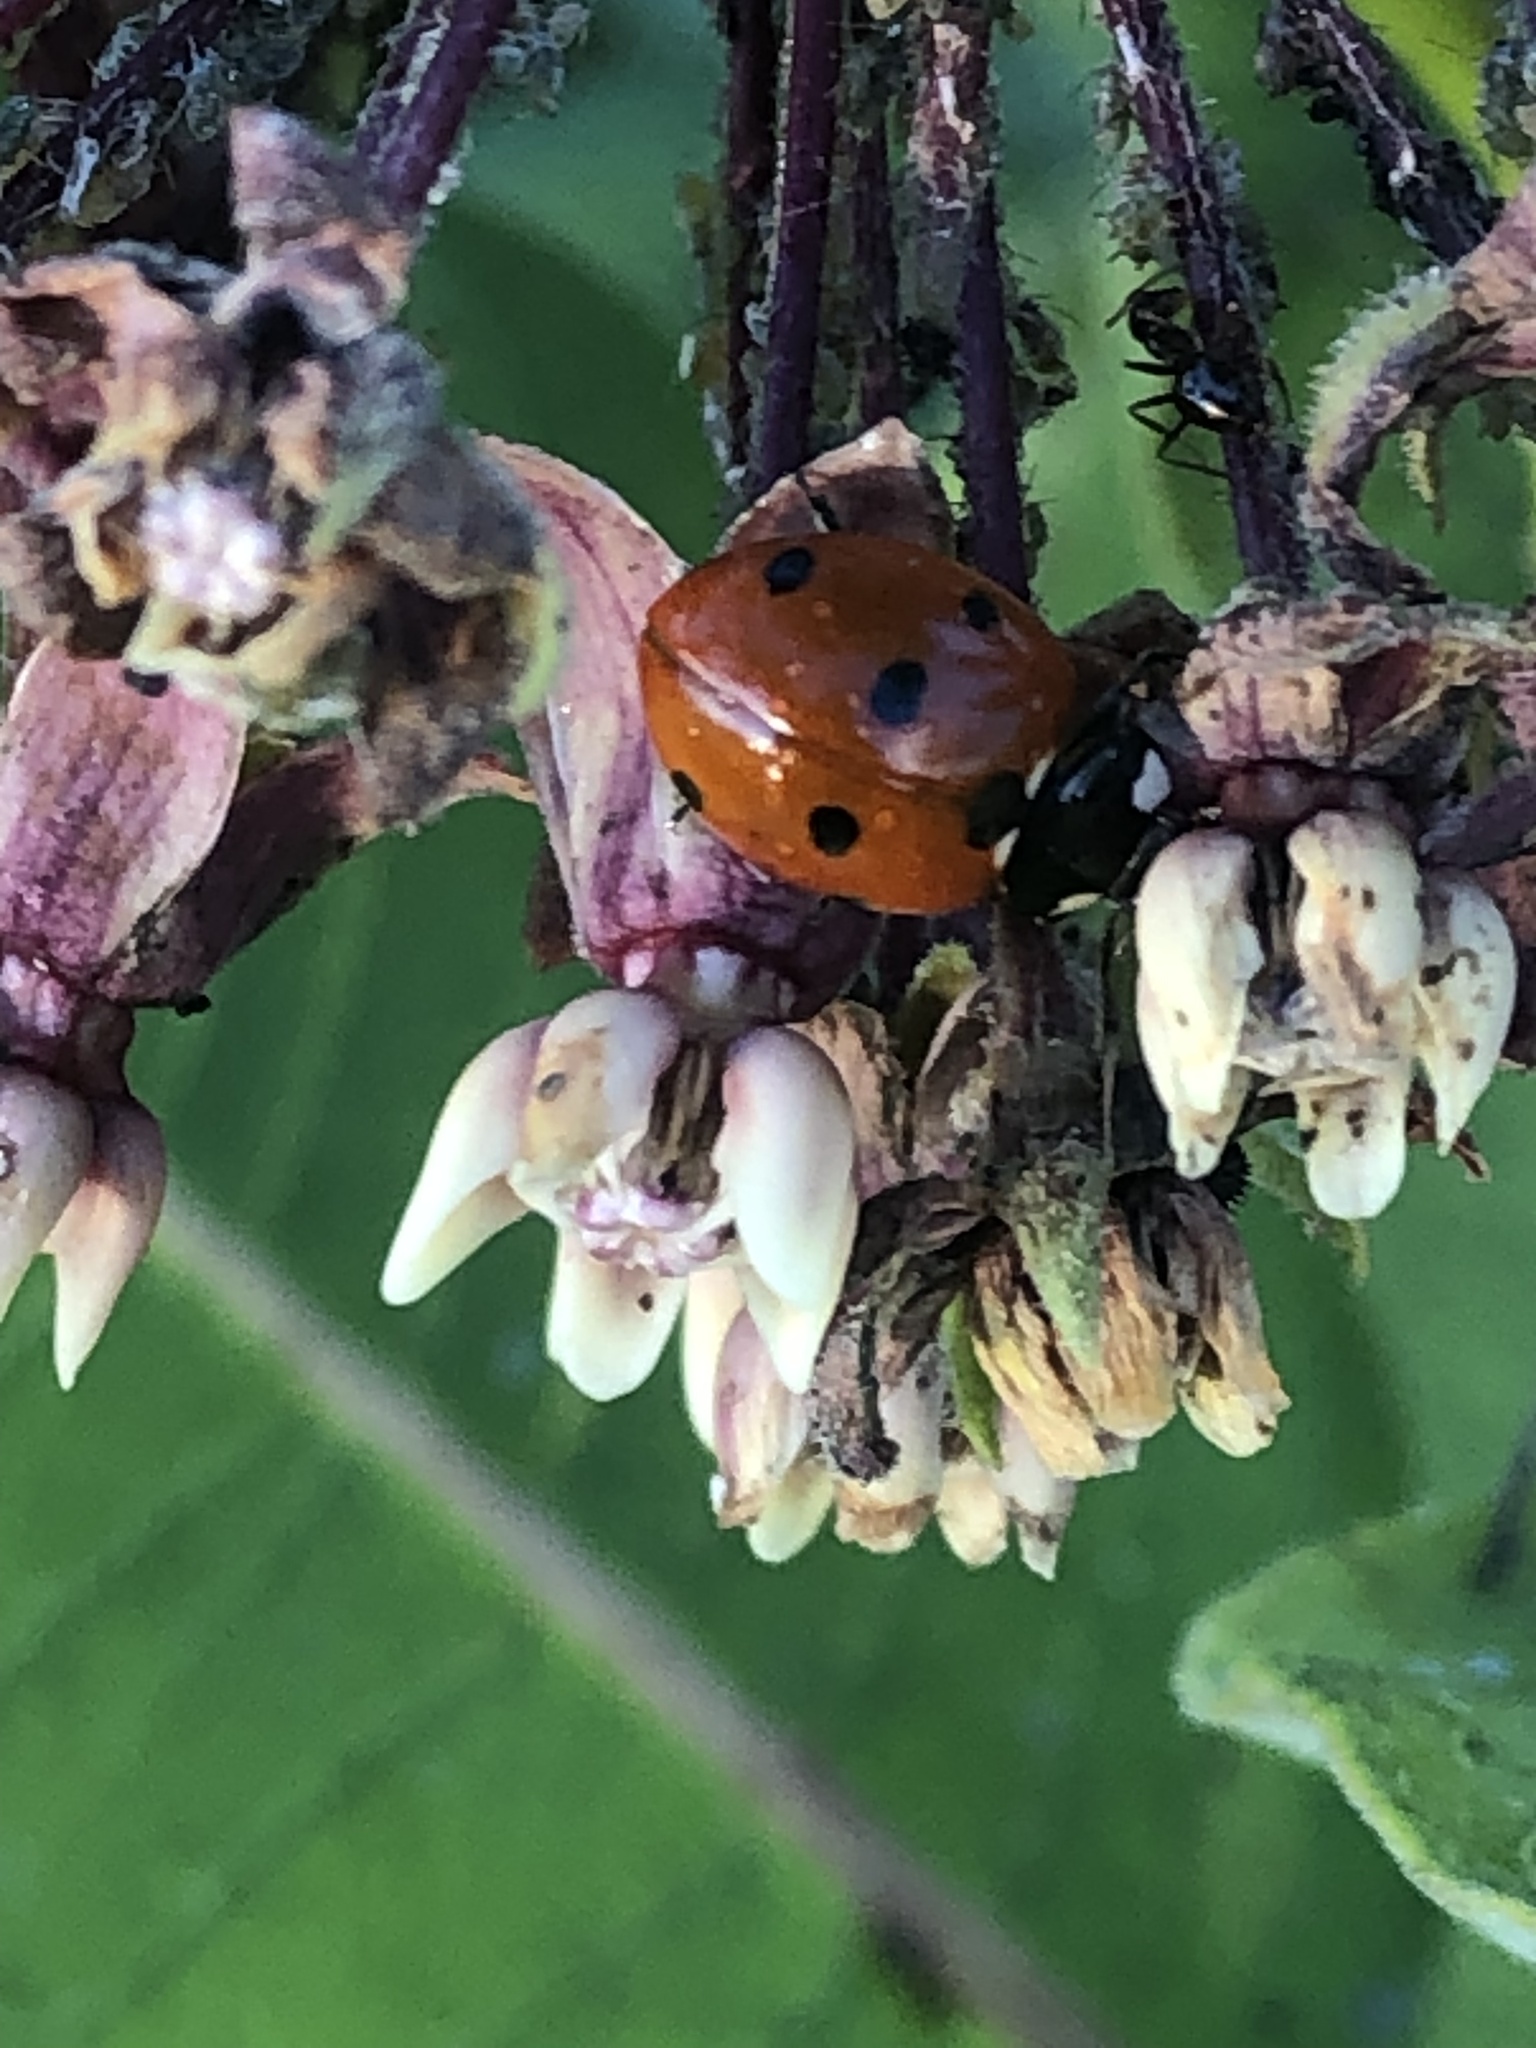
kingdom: Animalia
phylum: Arthropoda
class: Insecta
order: Coleoptera
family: Coccinellidae
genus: Coccinella
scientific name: Coccinella septempunctata
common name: Sevenspotted lady beetle
